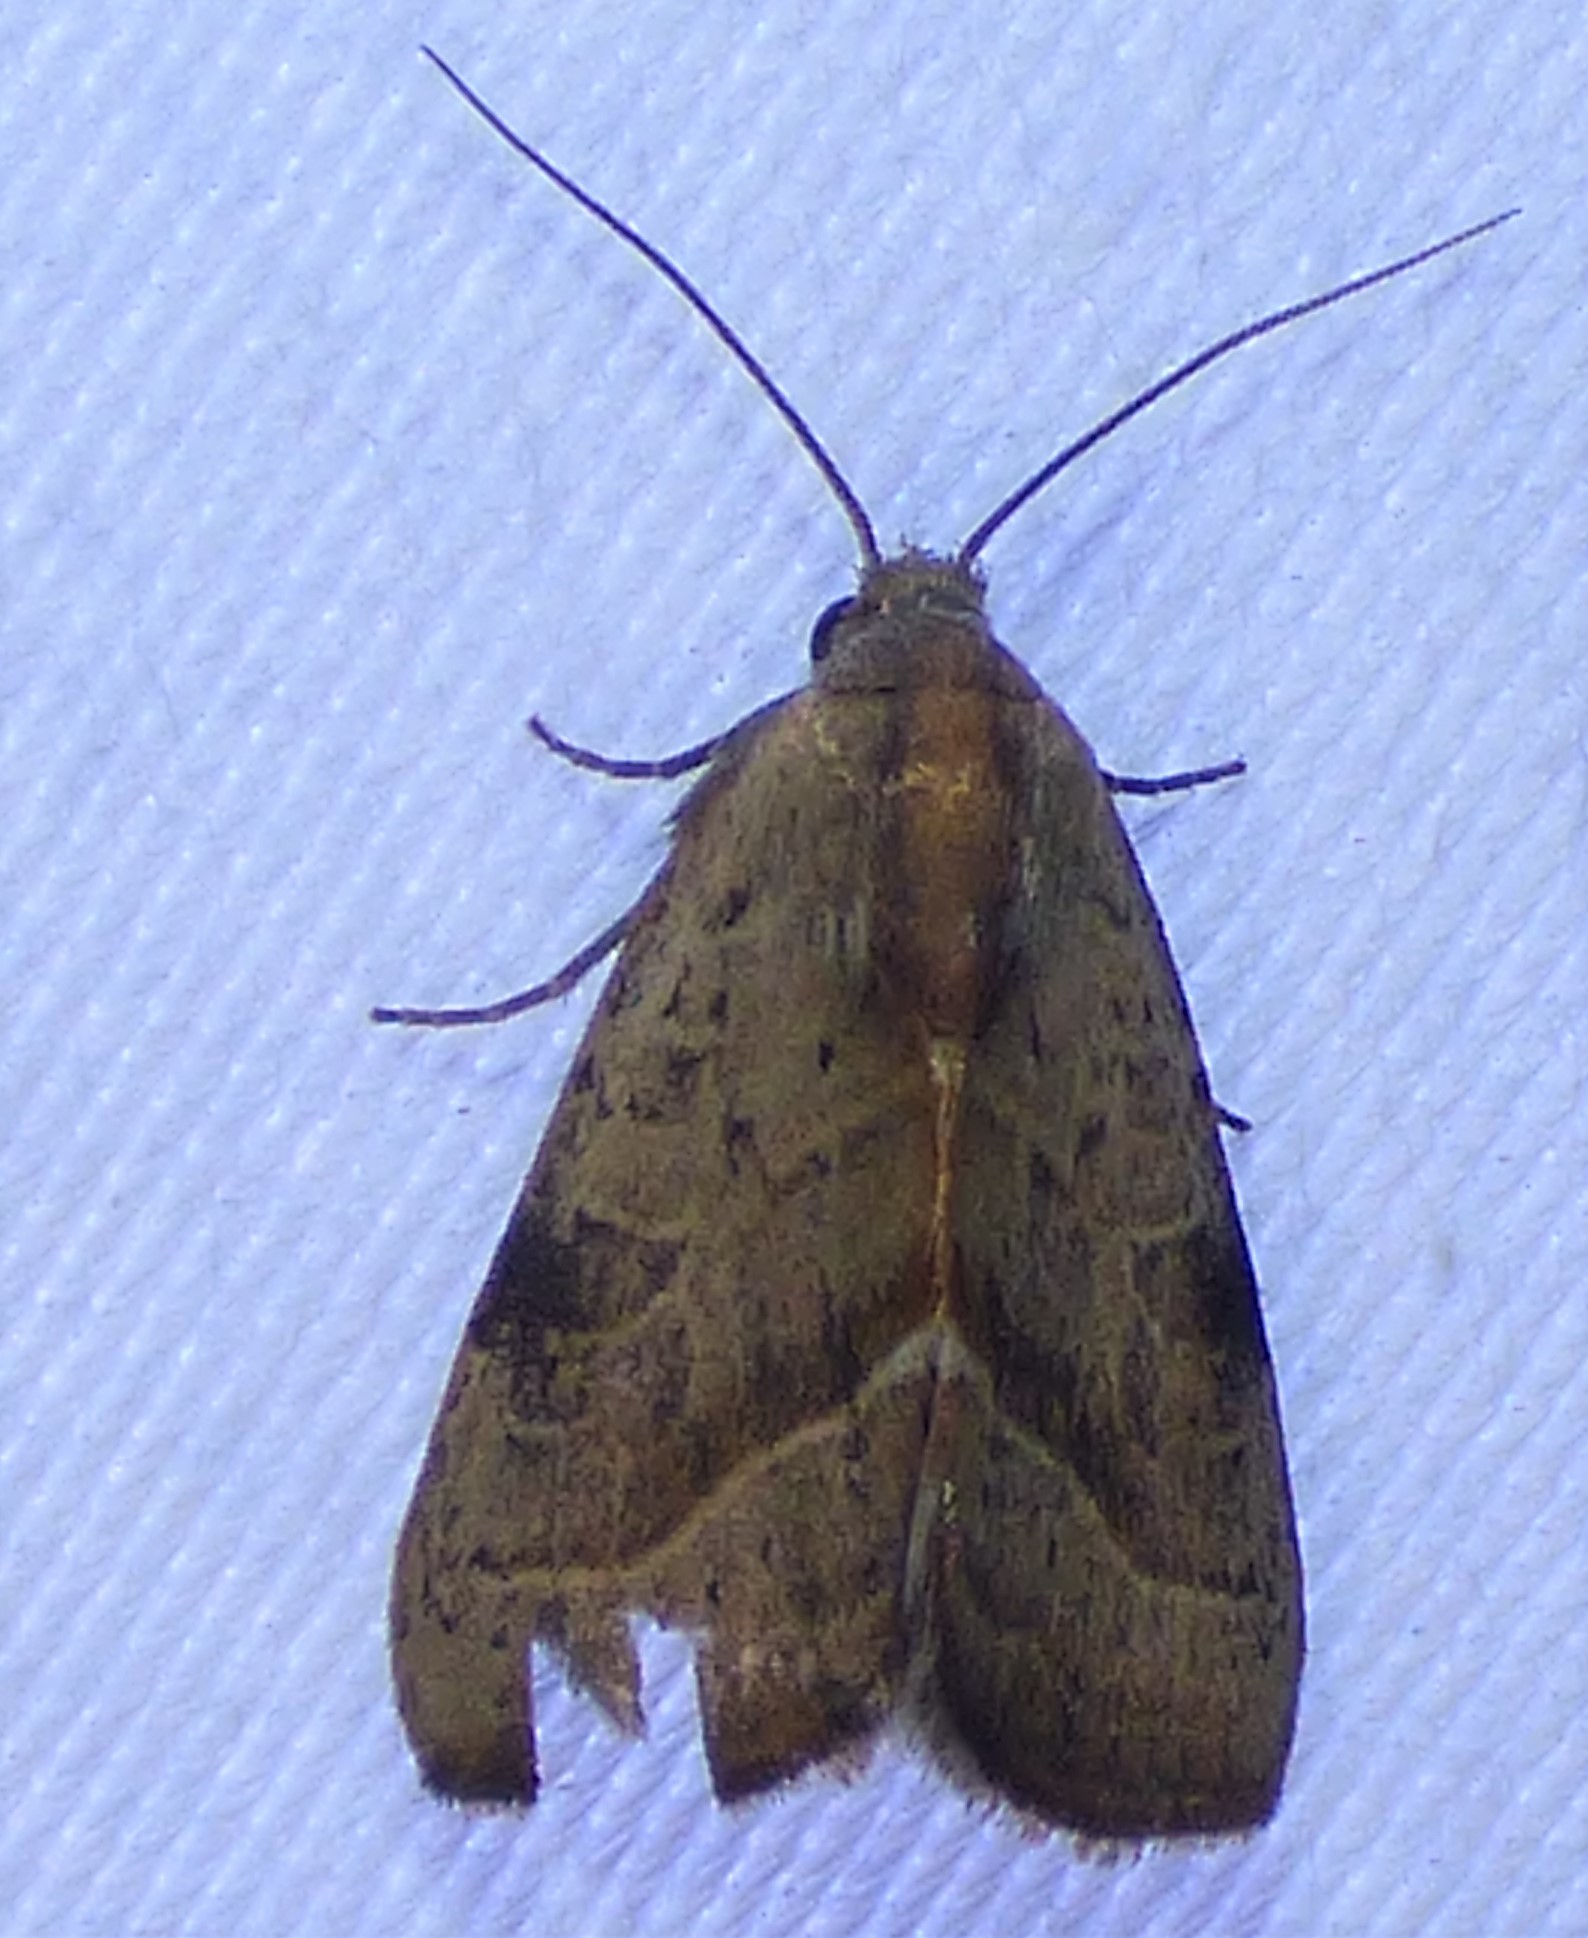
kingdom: Animalia
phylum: Arthropoda
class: Insecta
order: Lepidoptera
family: Noctuidae
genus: Galgula
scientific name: Galgula partita
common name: Wedgeling
